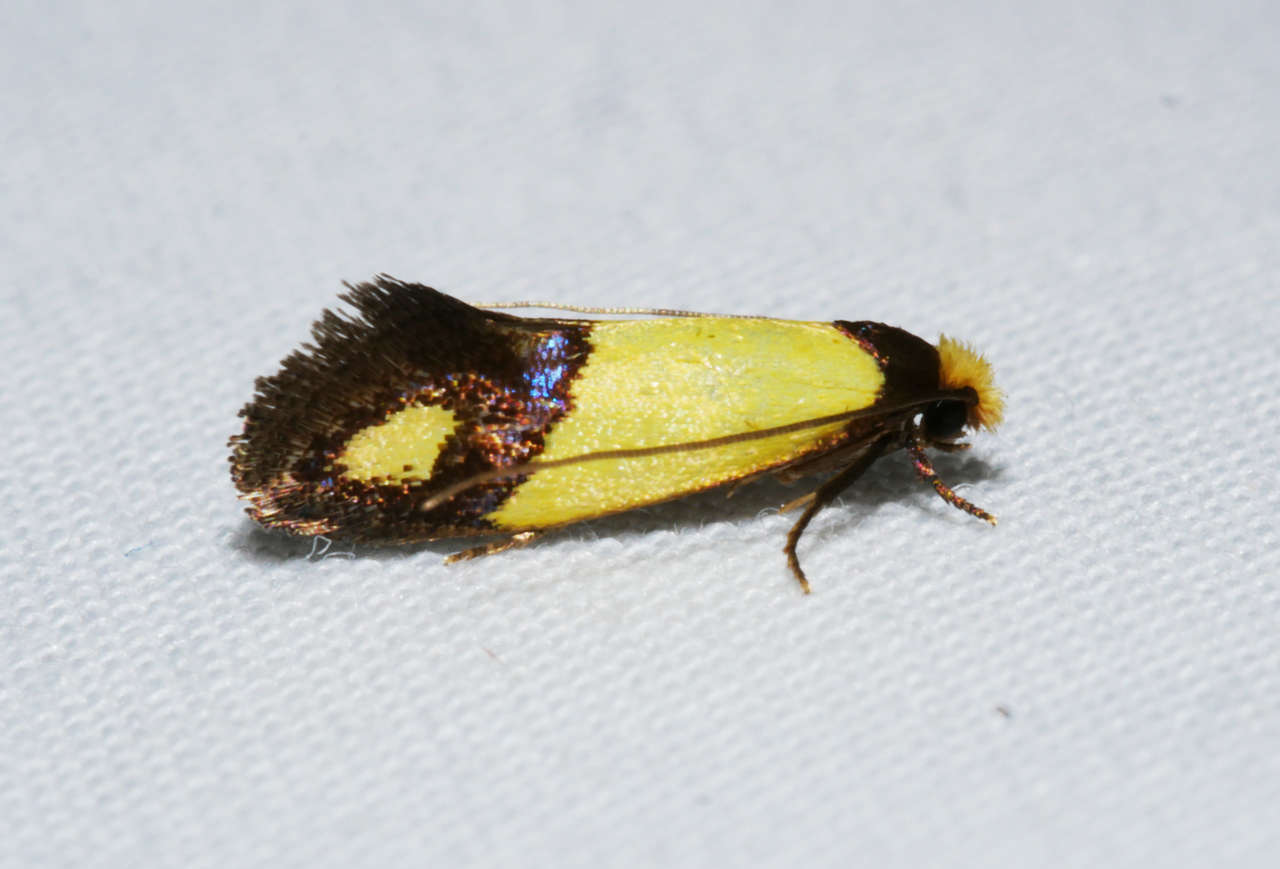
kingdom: Animalia
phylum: Arthropoda
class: Insecta
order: Lepidoptera
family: Tineidae
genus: Edosa
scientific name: Edosa fraudulens
